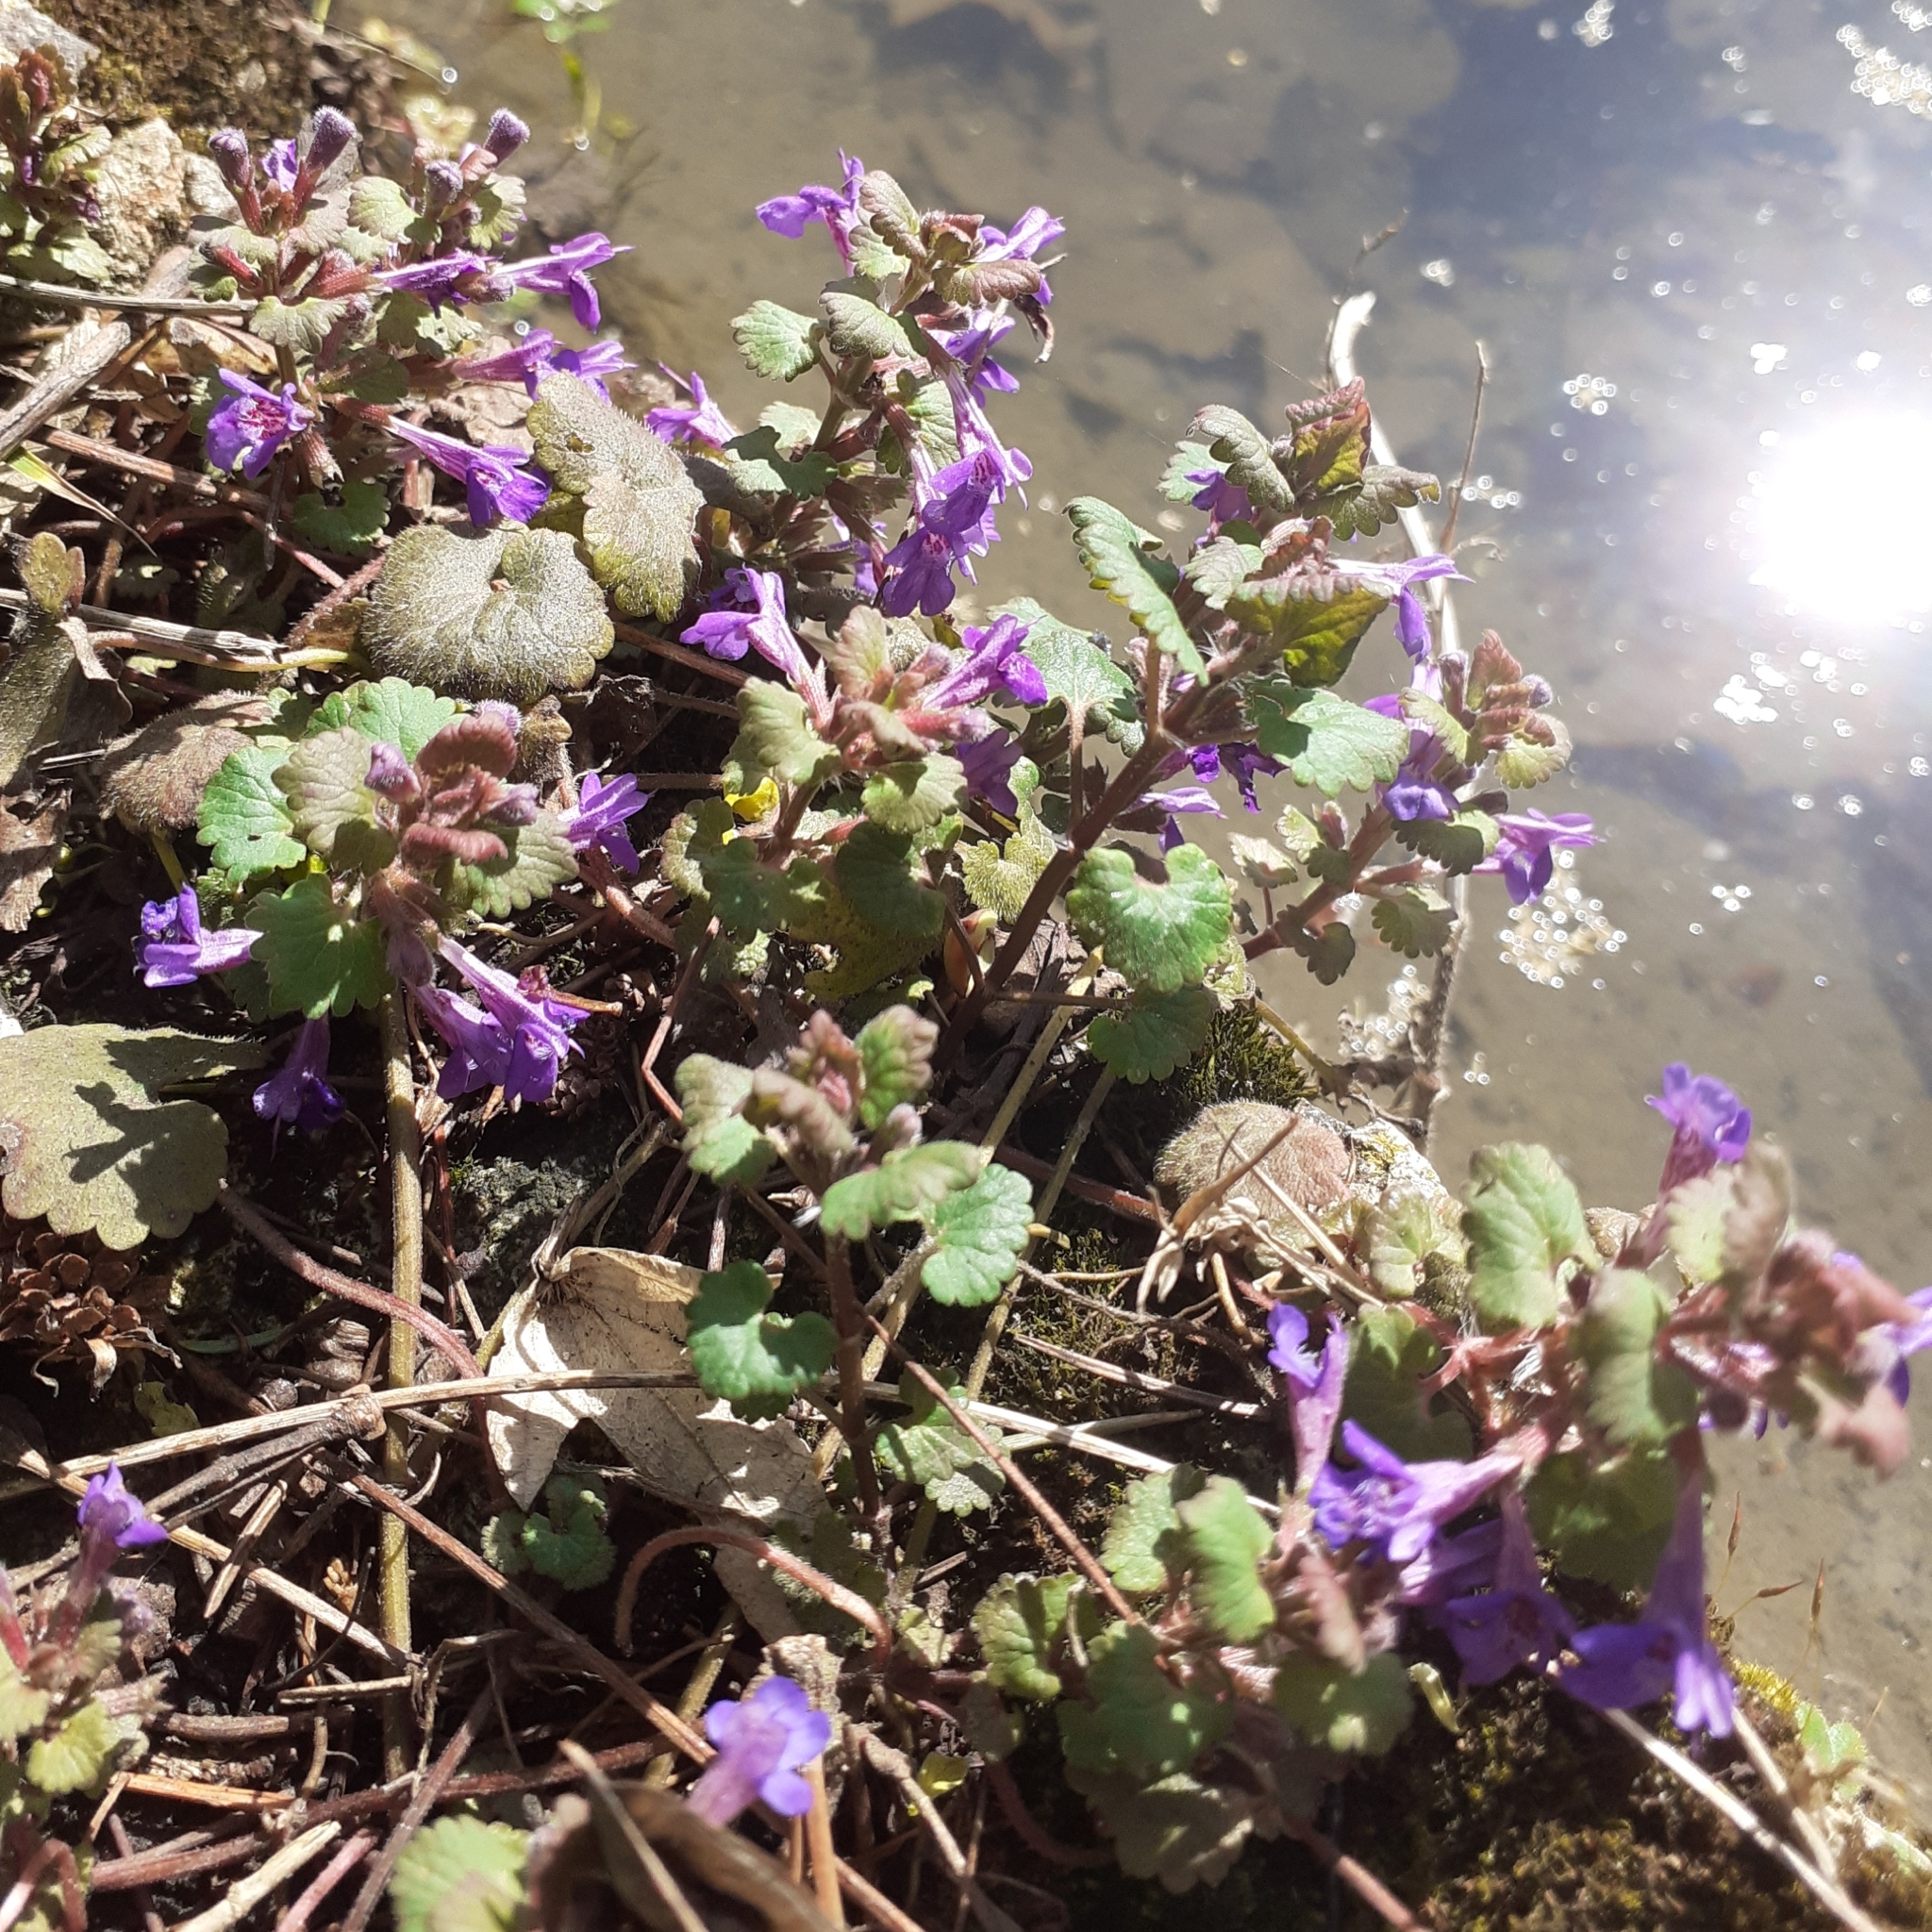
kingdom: Plantae
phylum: Tracheophyta
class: Magnoliopsida
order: Lamiales
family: Lamiaceae
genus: Glechoma
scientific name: Glechoma hederacea
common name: Ground ivy
